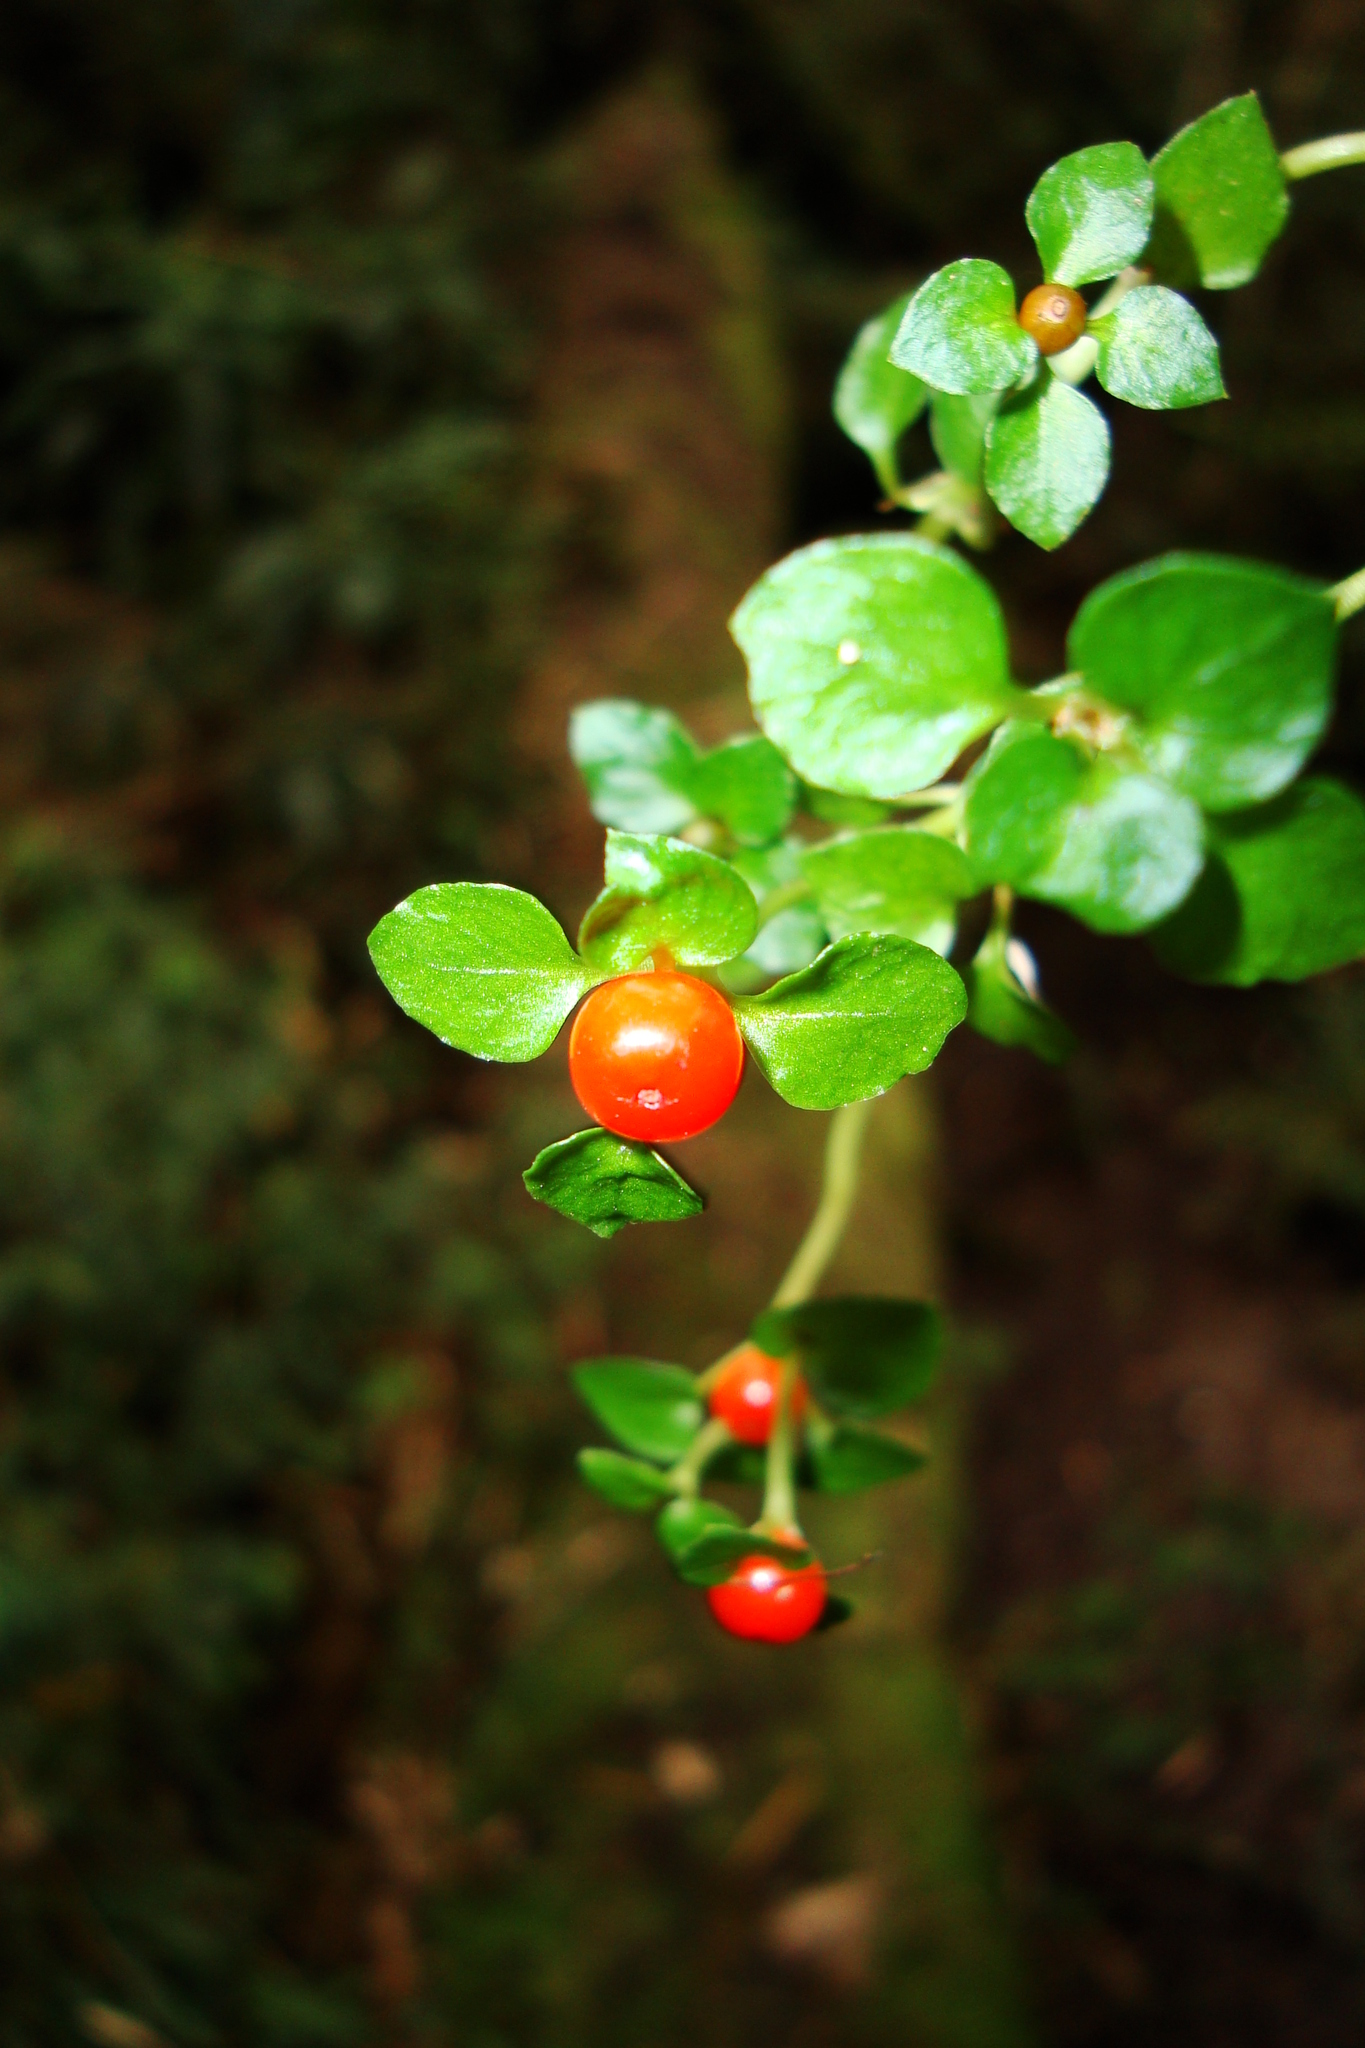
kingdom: Plantae
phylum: Tracheophyta
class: Magnoliopsida
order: Gentianales
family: Rubiaceae
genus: Nertera
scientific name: Nertera granadensis
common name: Beadplant
